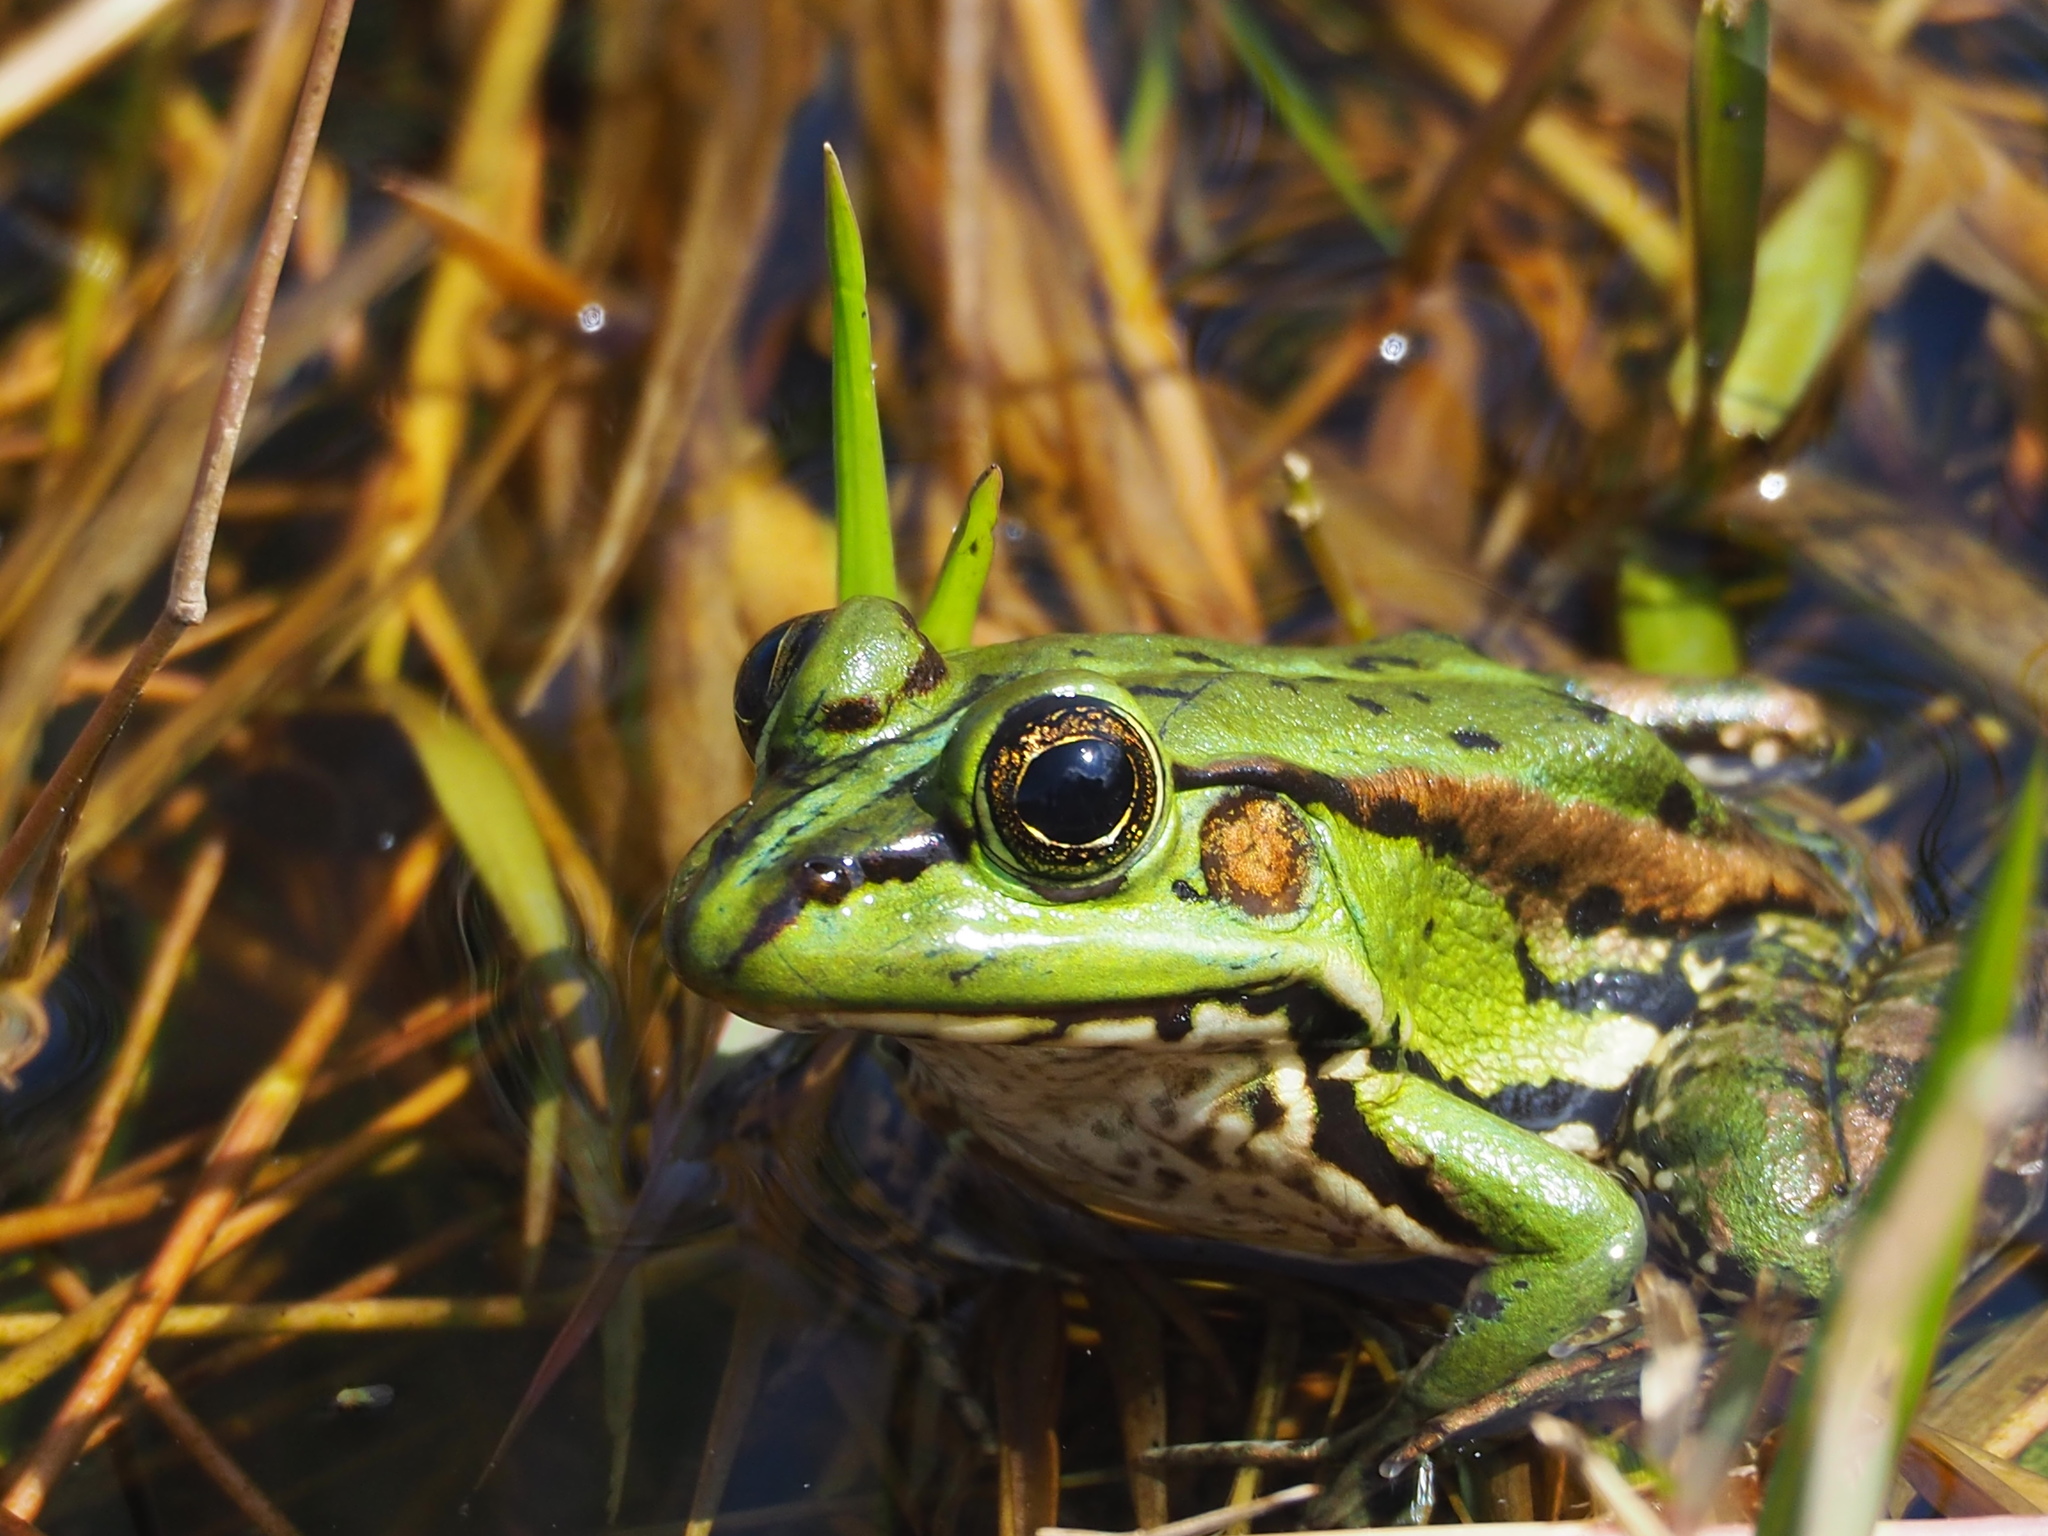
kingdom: Animalia
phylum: Chordata
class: Amphibia
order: Anura
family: Ranidae
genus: Pelophylax
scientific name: Pelophylax fukienensis
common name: Fukien gold-striped pond frog
